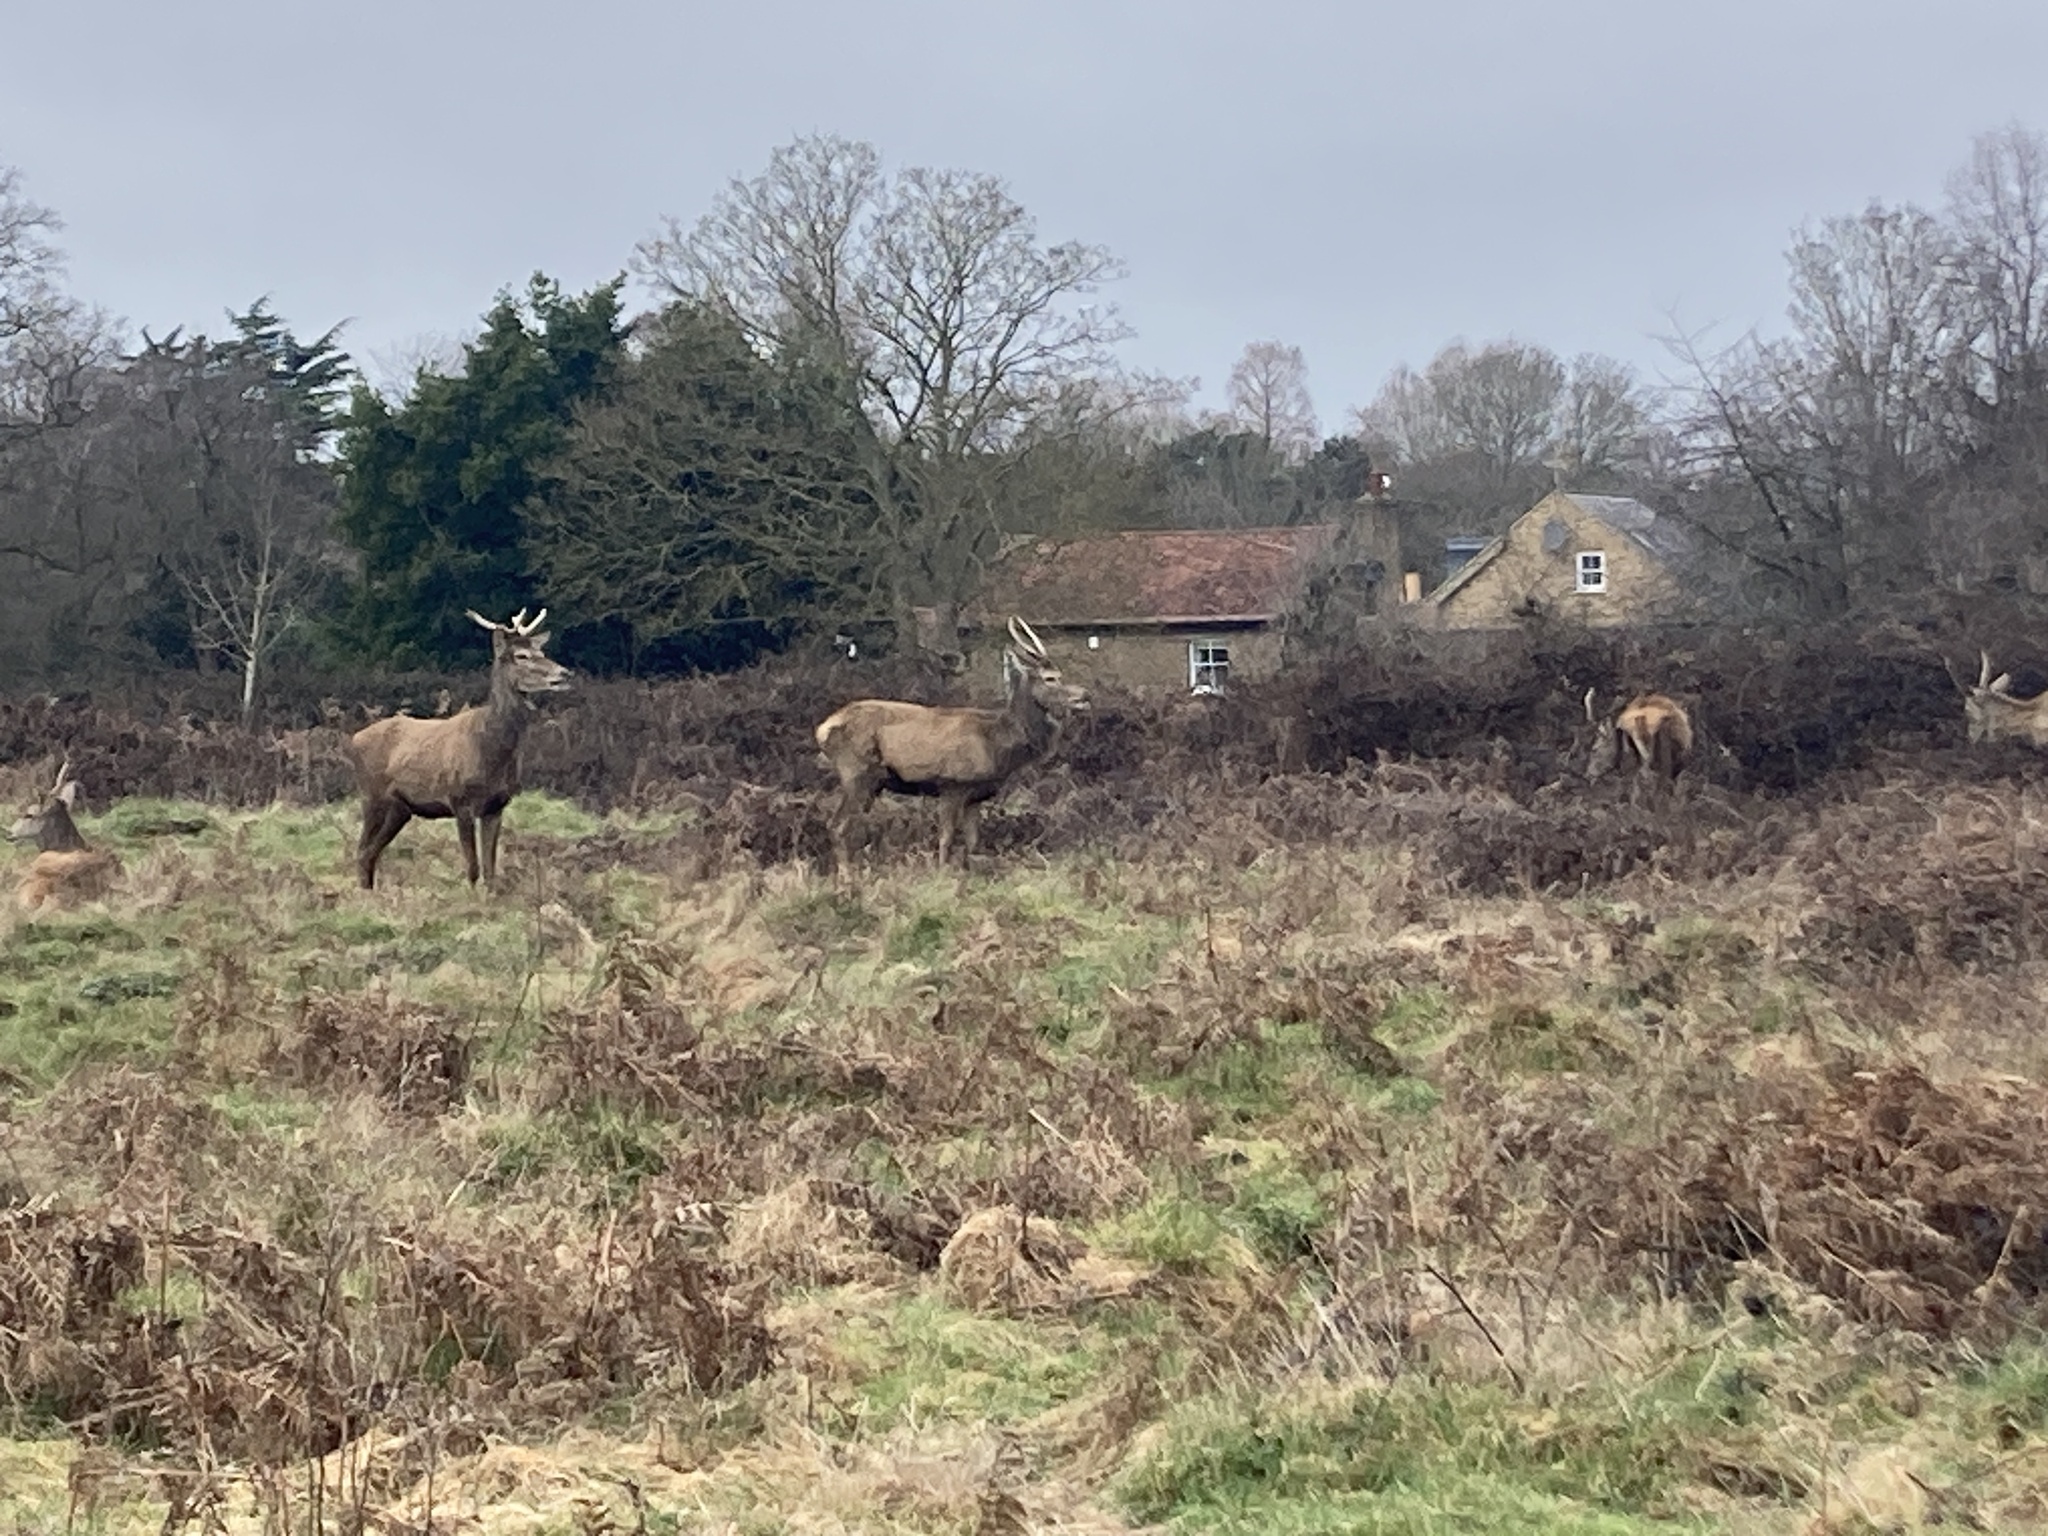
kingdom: Animalia
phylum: Chordata
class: Mammalia
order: Artiodactyla
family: Cervidae
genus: Cervus
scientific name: Cervus elaphus
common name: Red deer
